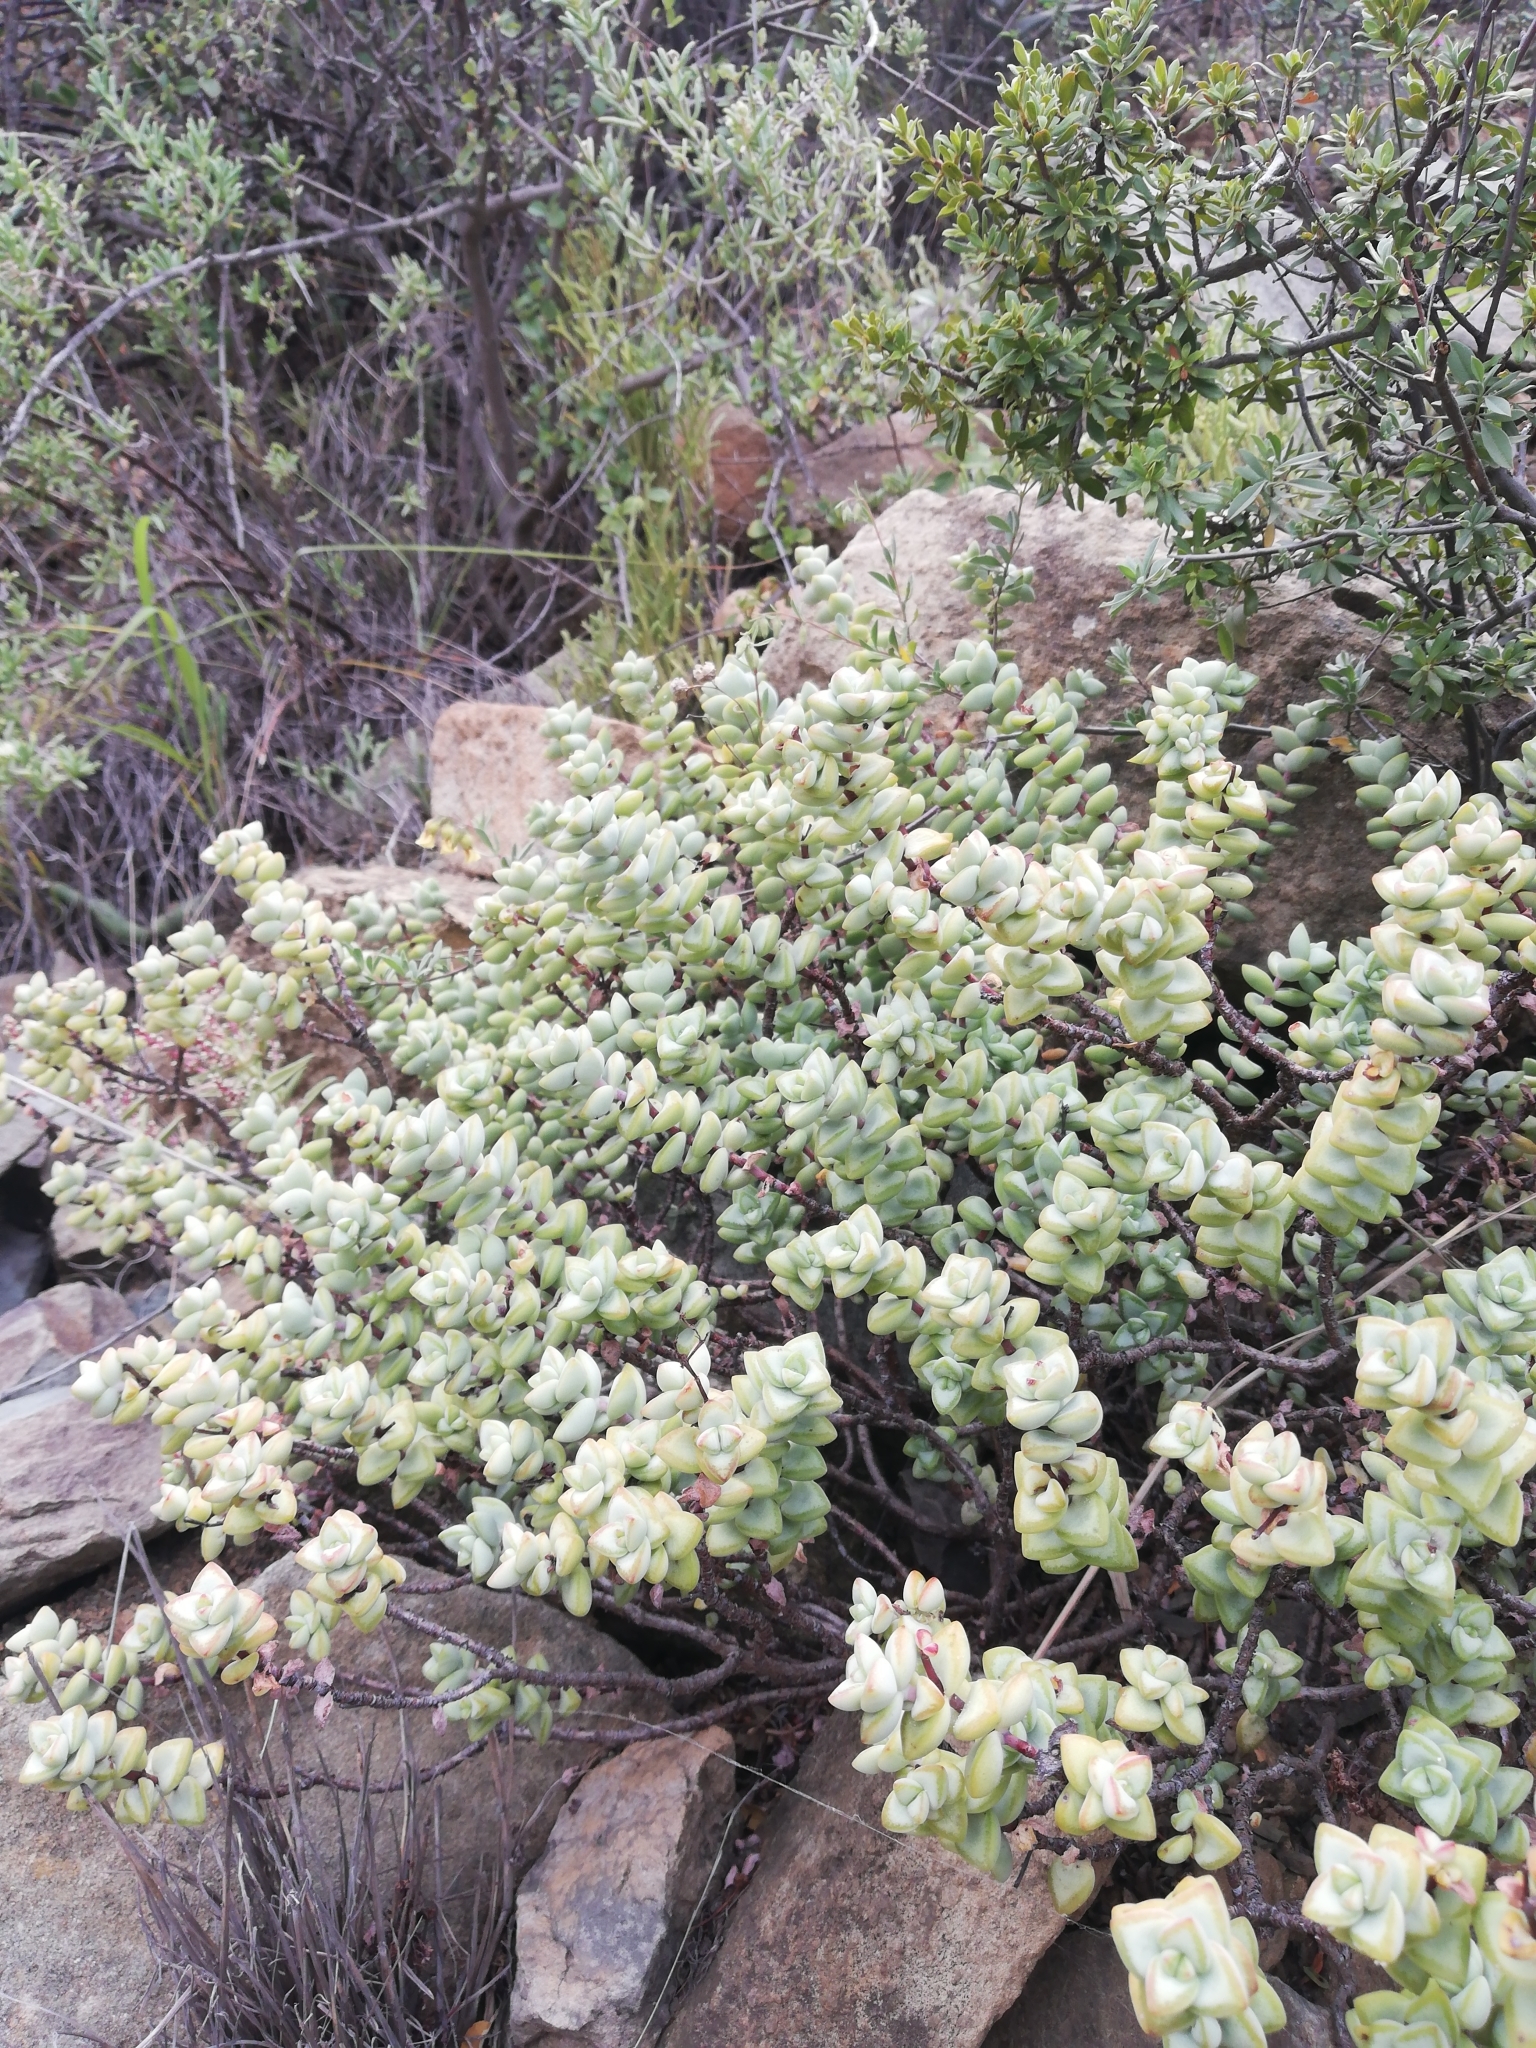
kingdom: Plantae
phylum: Tracheophyta
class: Magnoliopsida
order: Saxifragales
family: Crassulaceae
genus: Crassula
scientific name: Crassula rupestris
